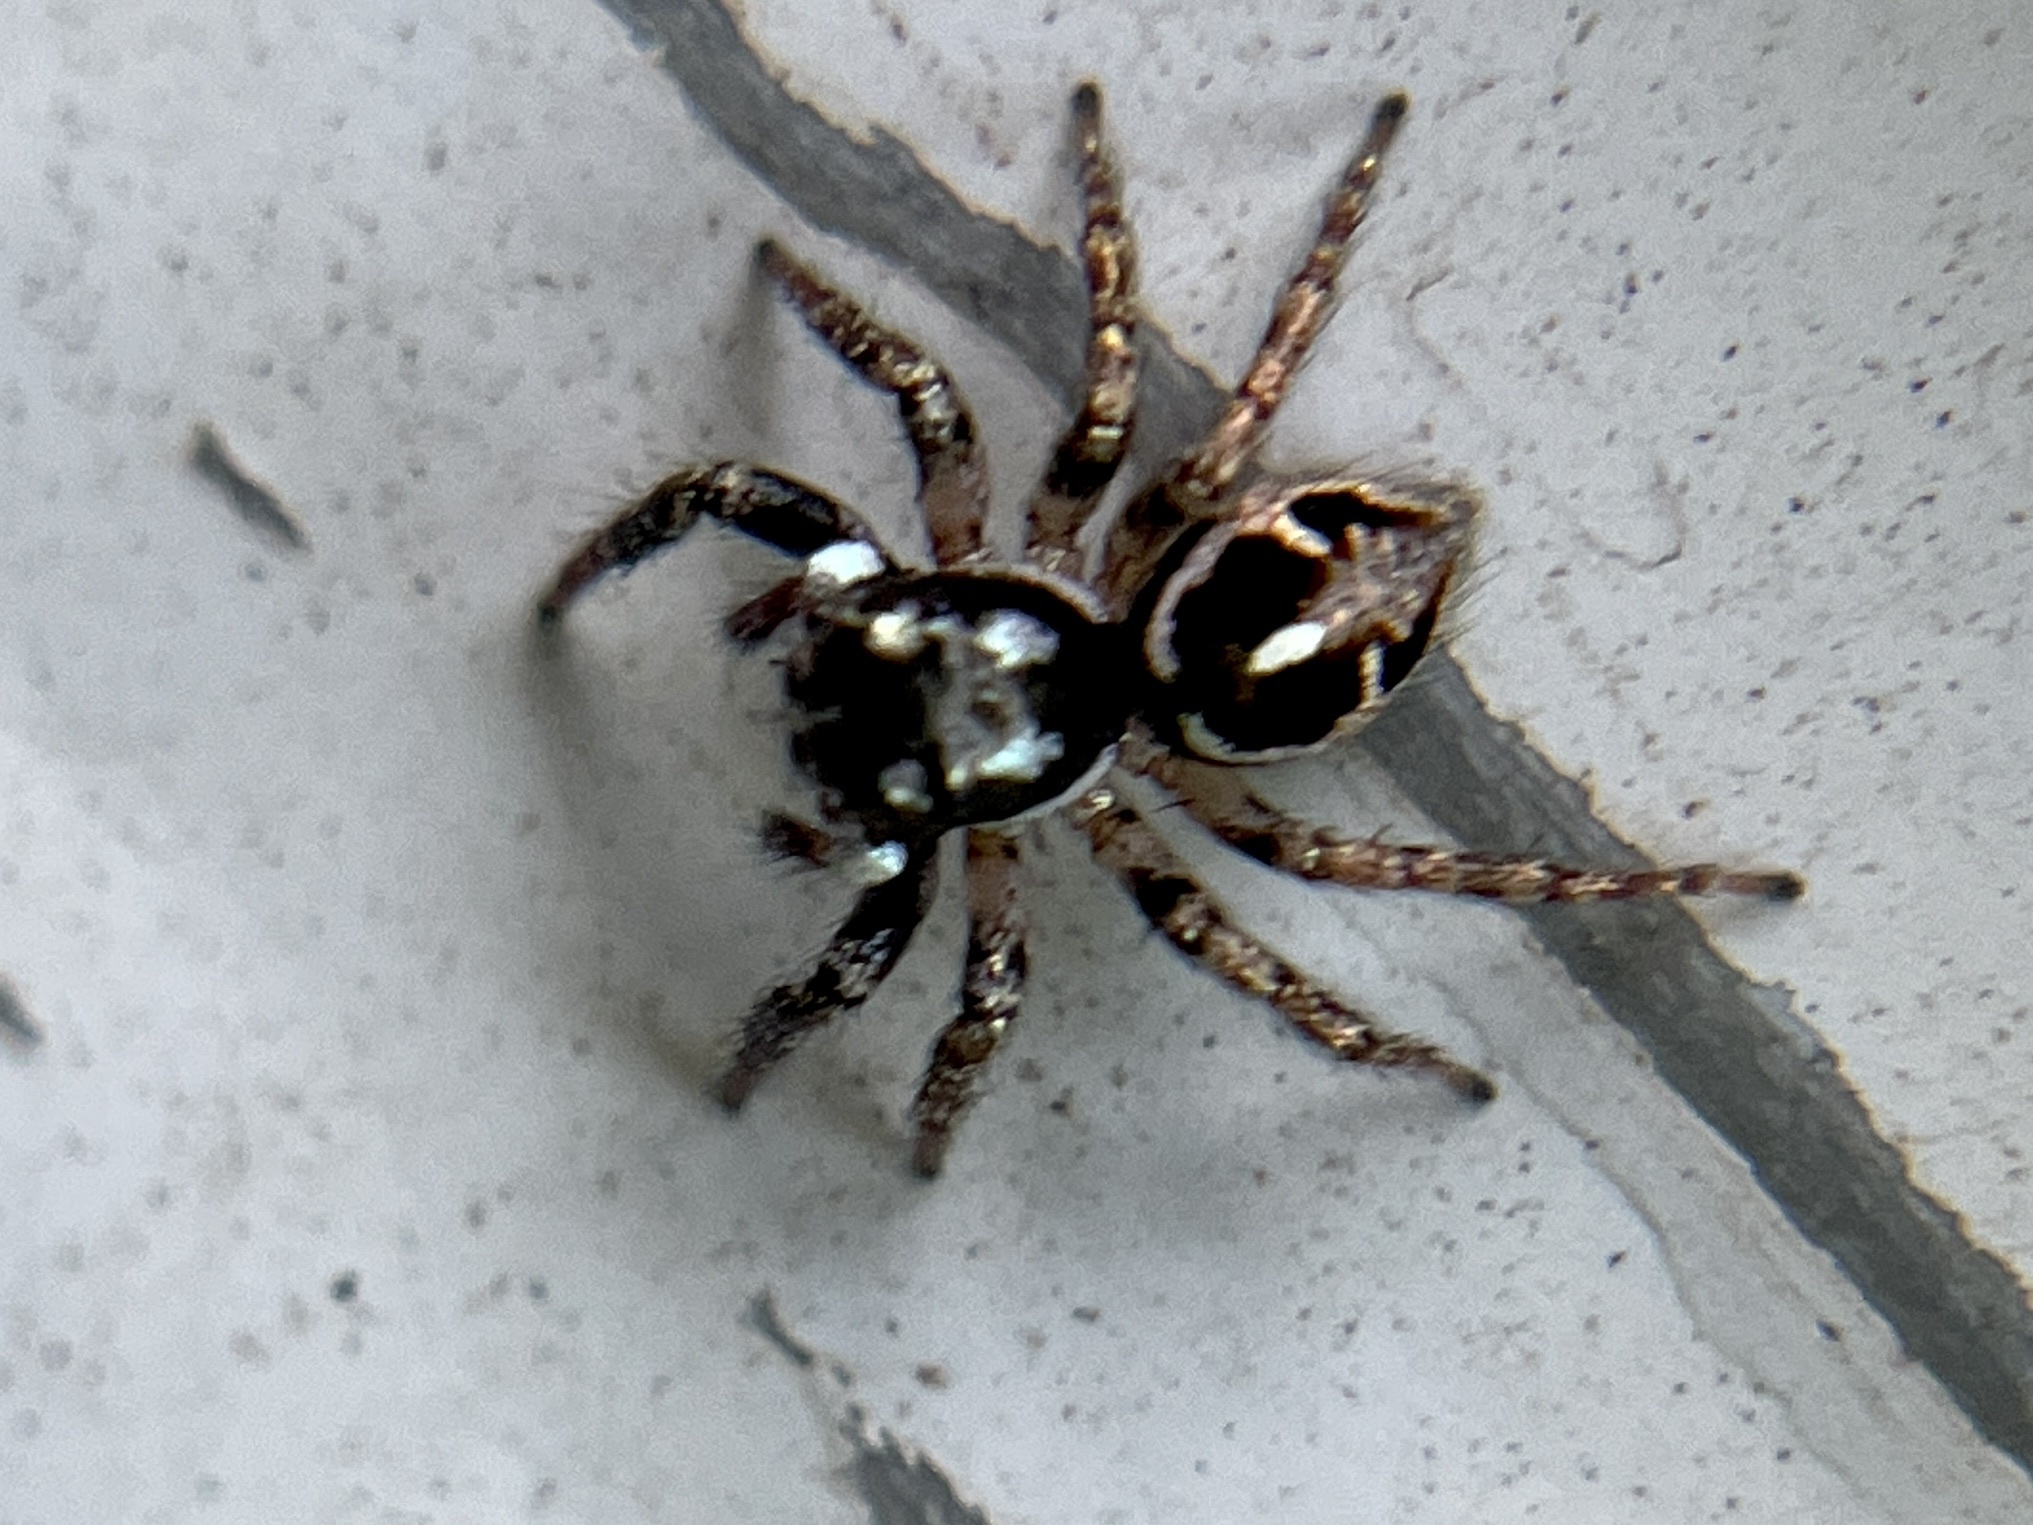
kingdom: Animalia
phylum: Arthropoda
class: Arachnida
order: Araneae
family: Salticidae
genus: Anasaitis
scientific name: Anasaitis canosa
